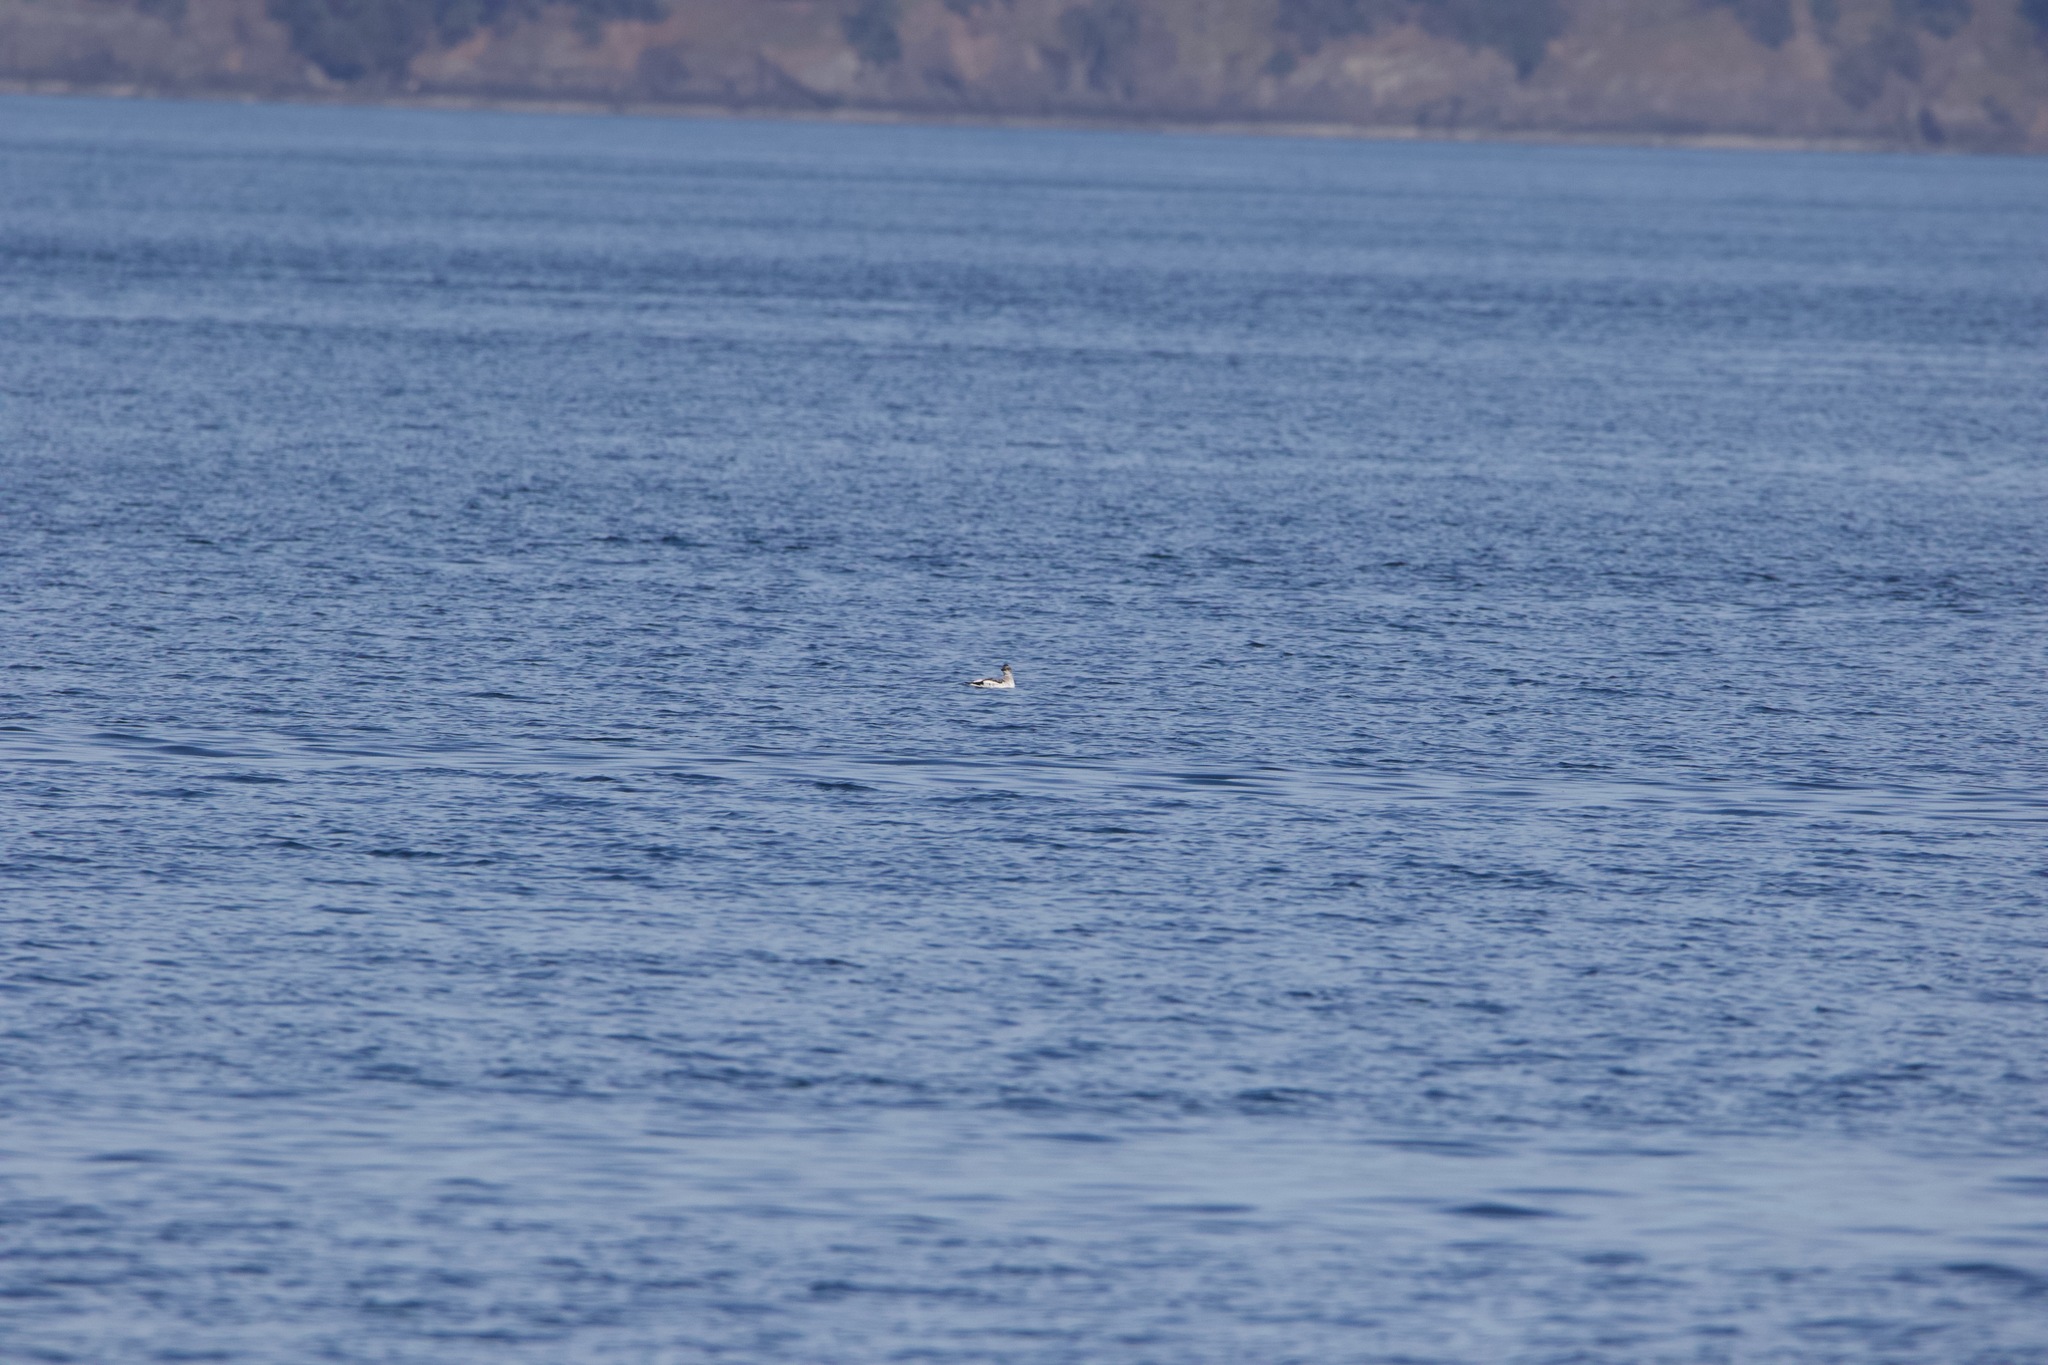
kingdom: Animalia
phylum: Chordata
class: Aves
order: Charadriiformes
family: Alcidae
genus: Cepphus
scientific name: Cepphus columba
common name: Pigeon guillemot
